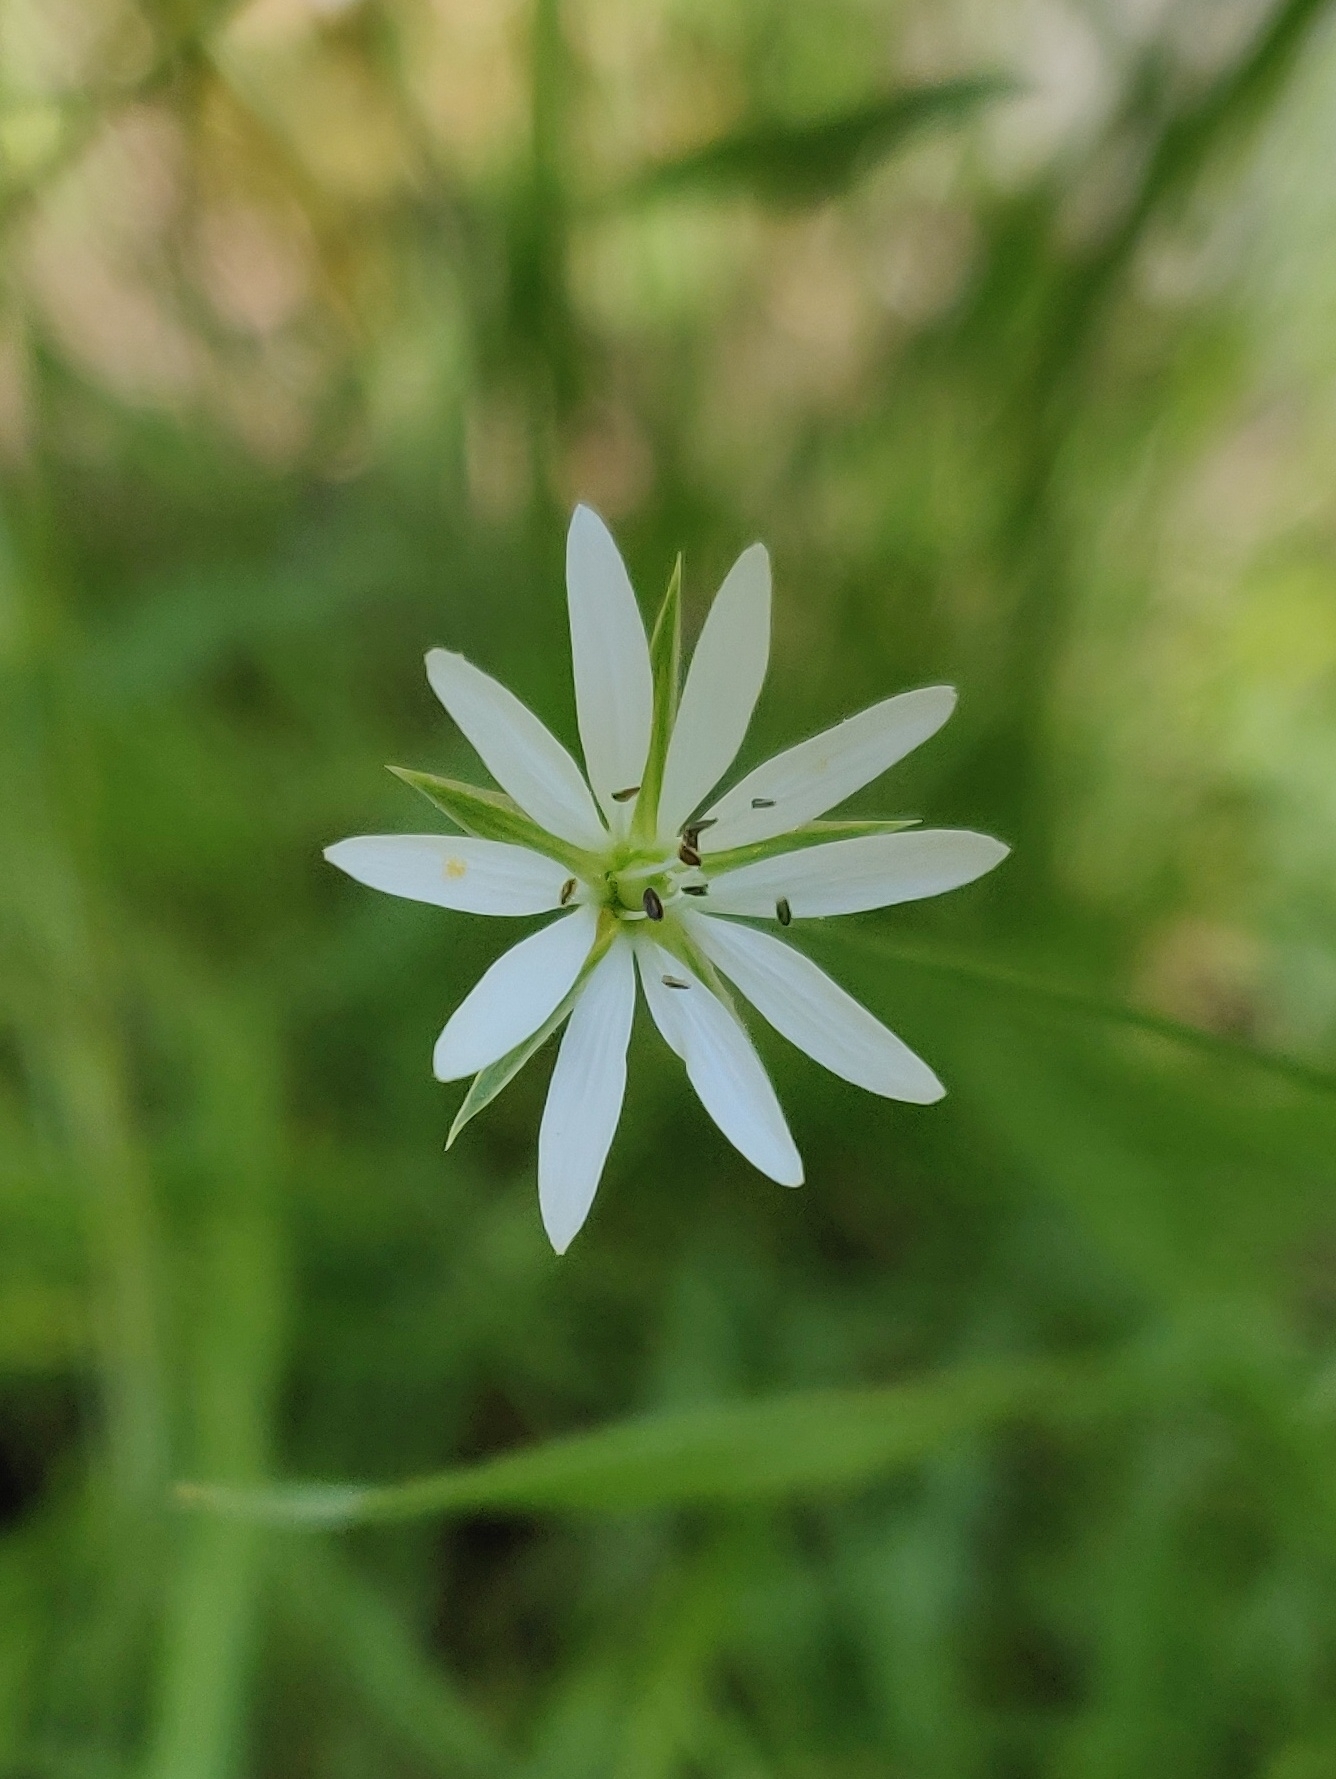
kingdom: Plantae
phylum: Tracheophyta
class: Magnoliopsida
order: Caryophyllales
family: Caryophyllaceae
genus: Stellaria
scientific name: Stellaria graminea
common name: Grass-like starwort
